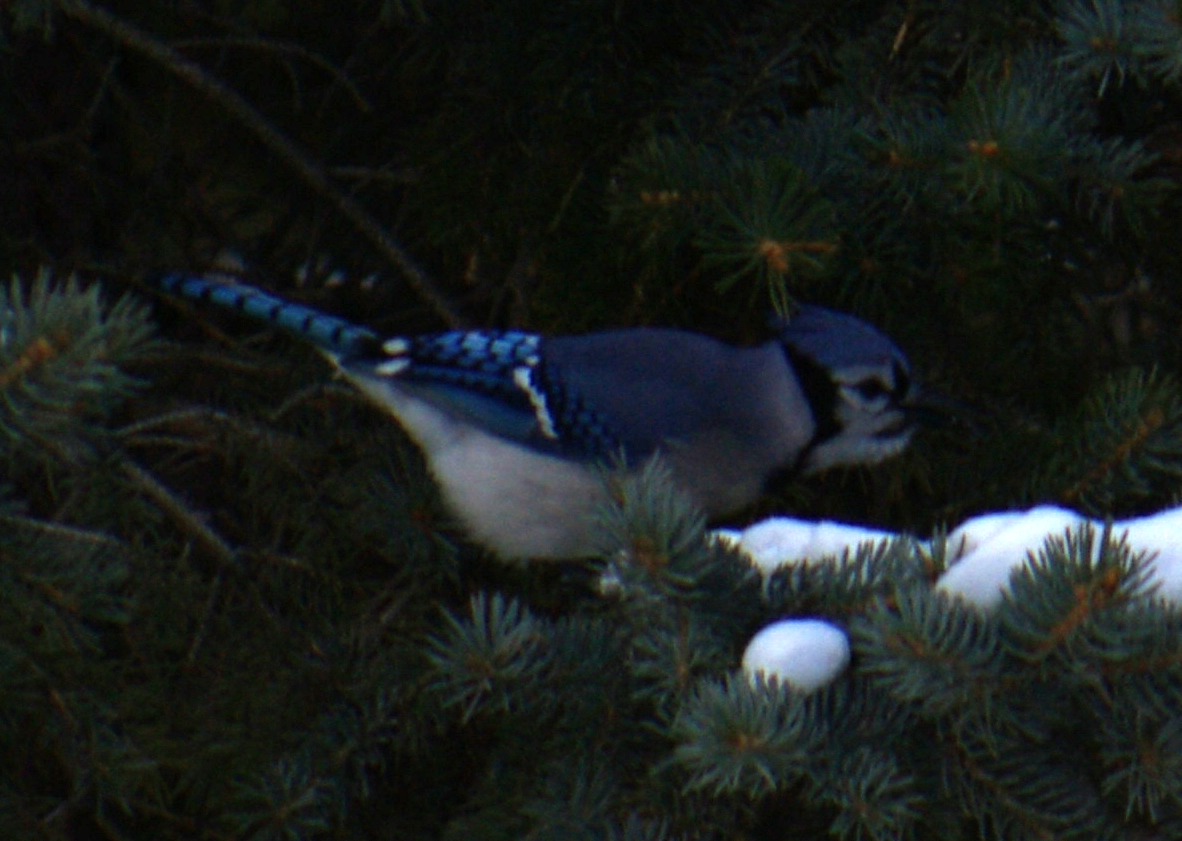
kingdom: Animalia
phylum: Chordata
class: Aves
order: Passeriformes
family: Corvidae
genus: Cyanocitta
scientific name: Cyanocitta cristata
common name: Blue jay
